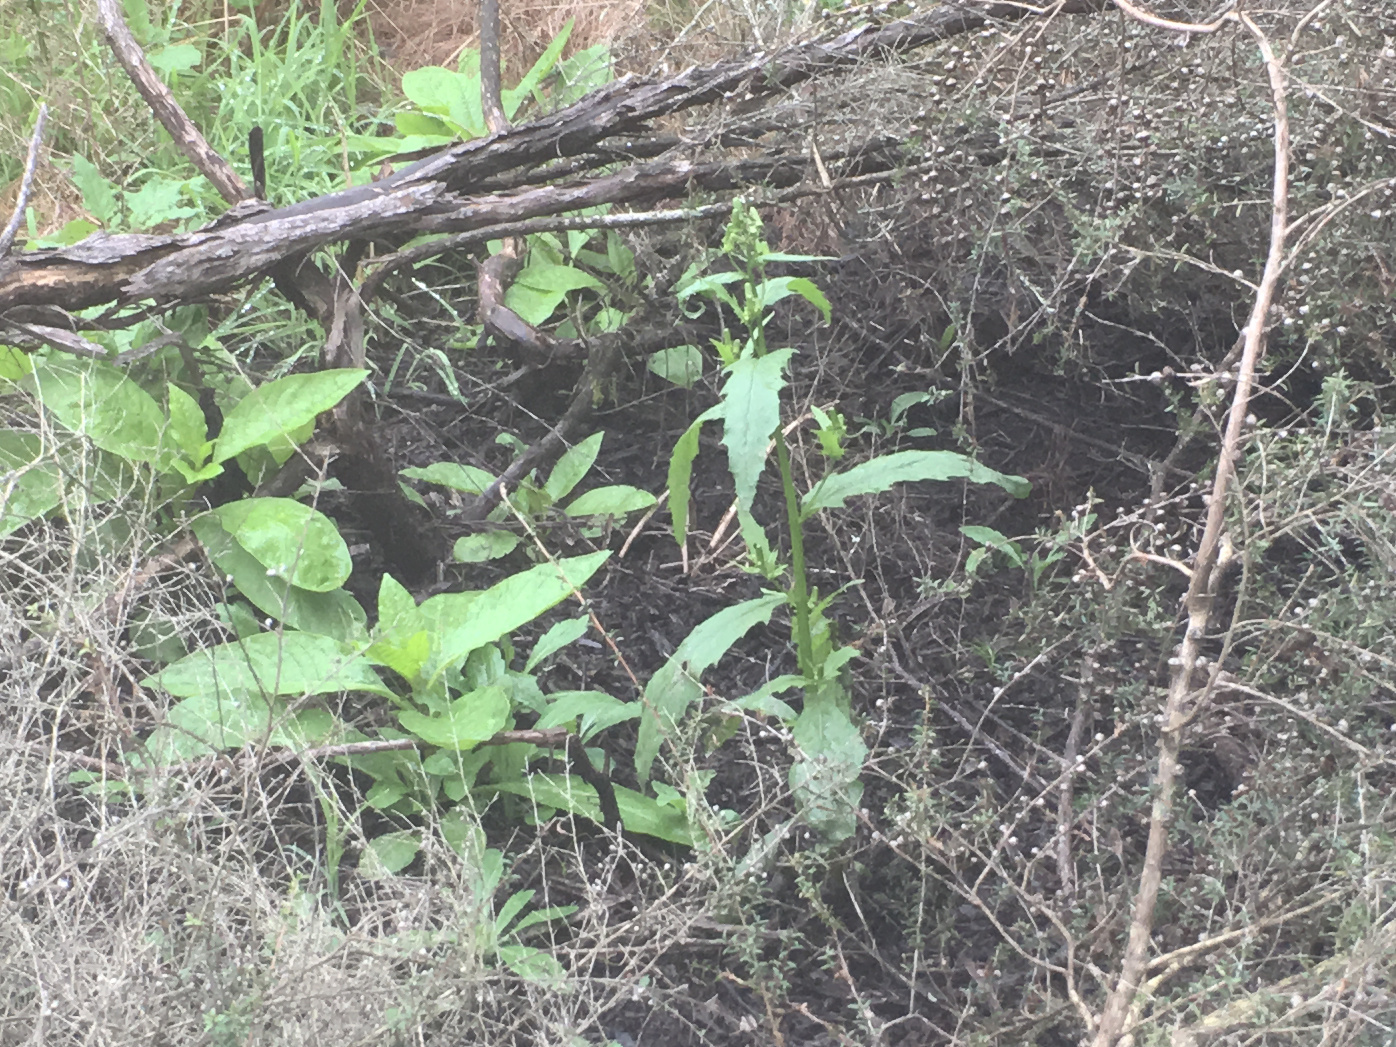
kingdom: Plantae
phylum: Tracheophyta
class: Magnoliopsida
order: Asterales
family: Asteraceae
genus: Erechtites
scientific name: Erechtites hieraciifolius
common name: American burnweed
